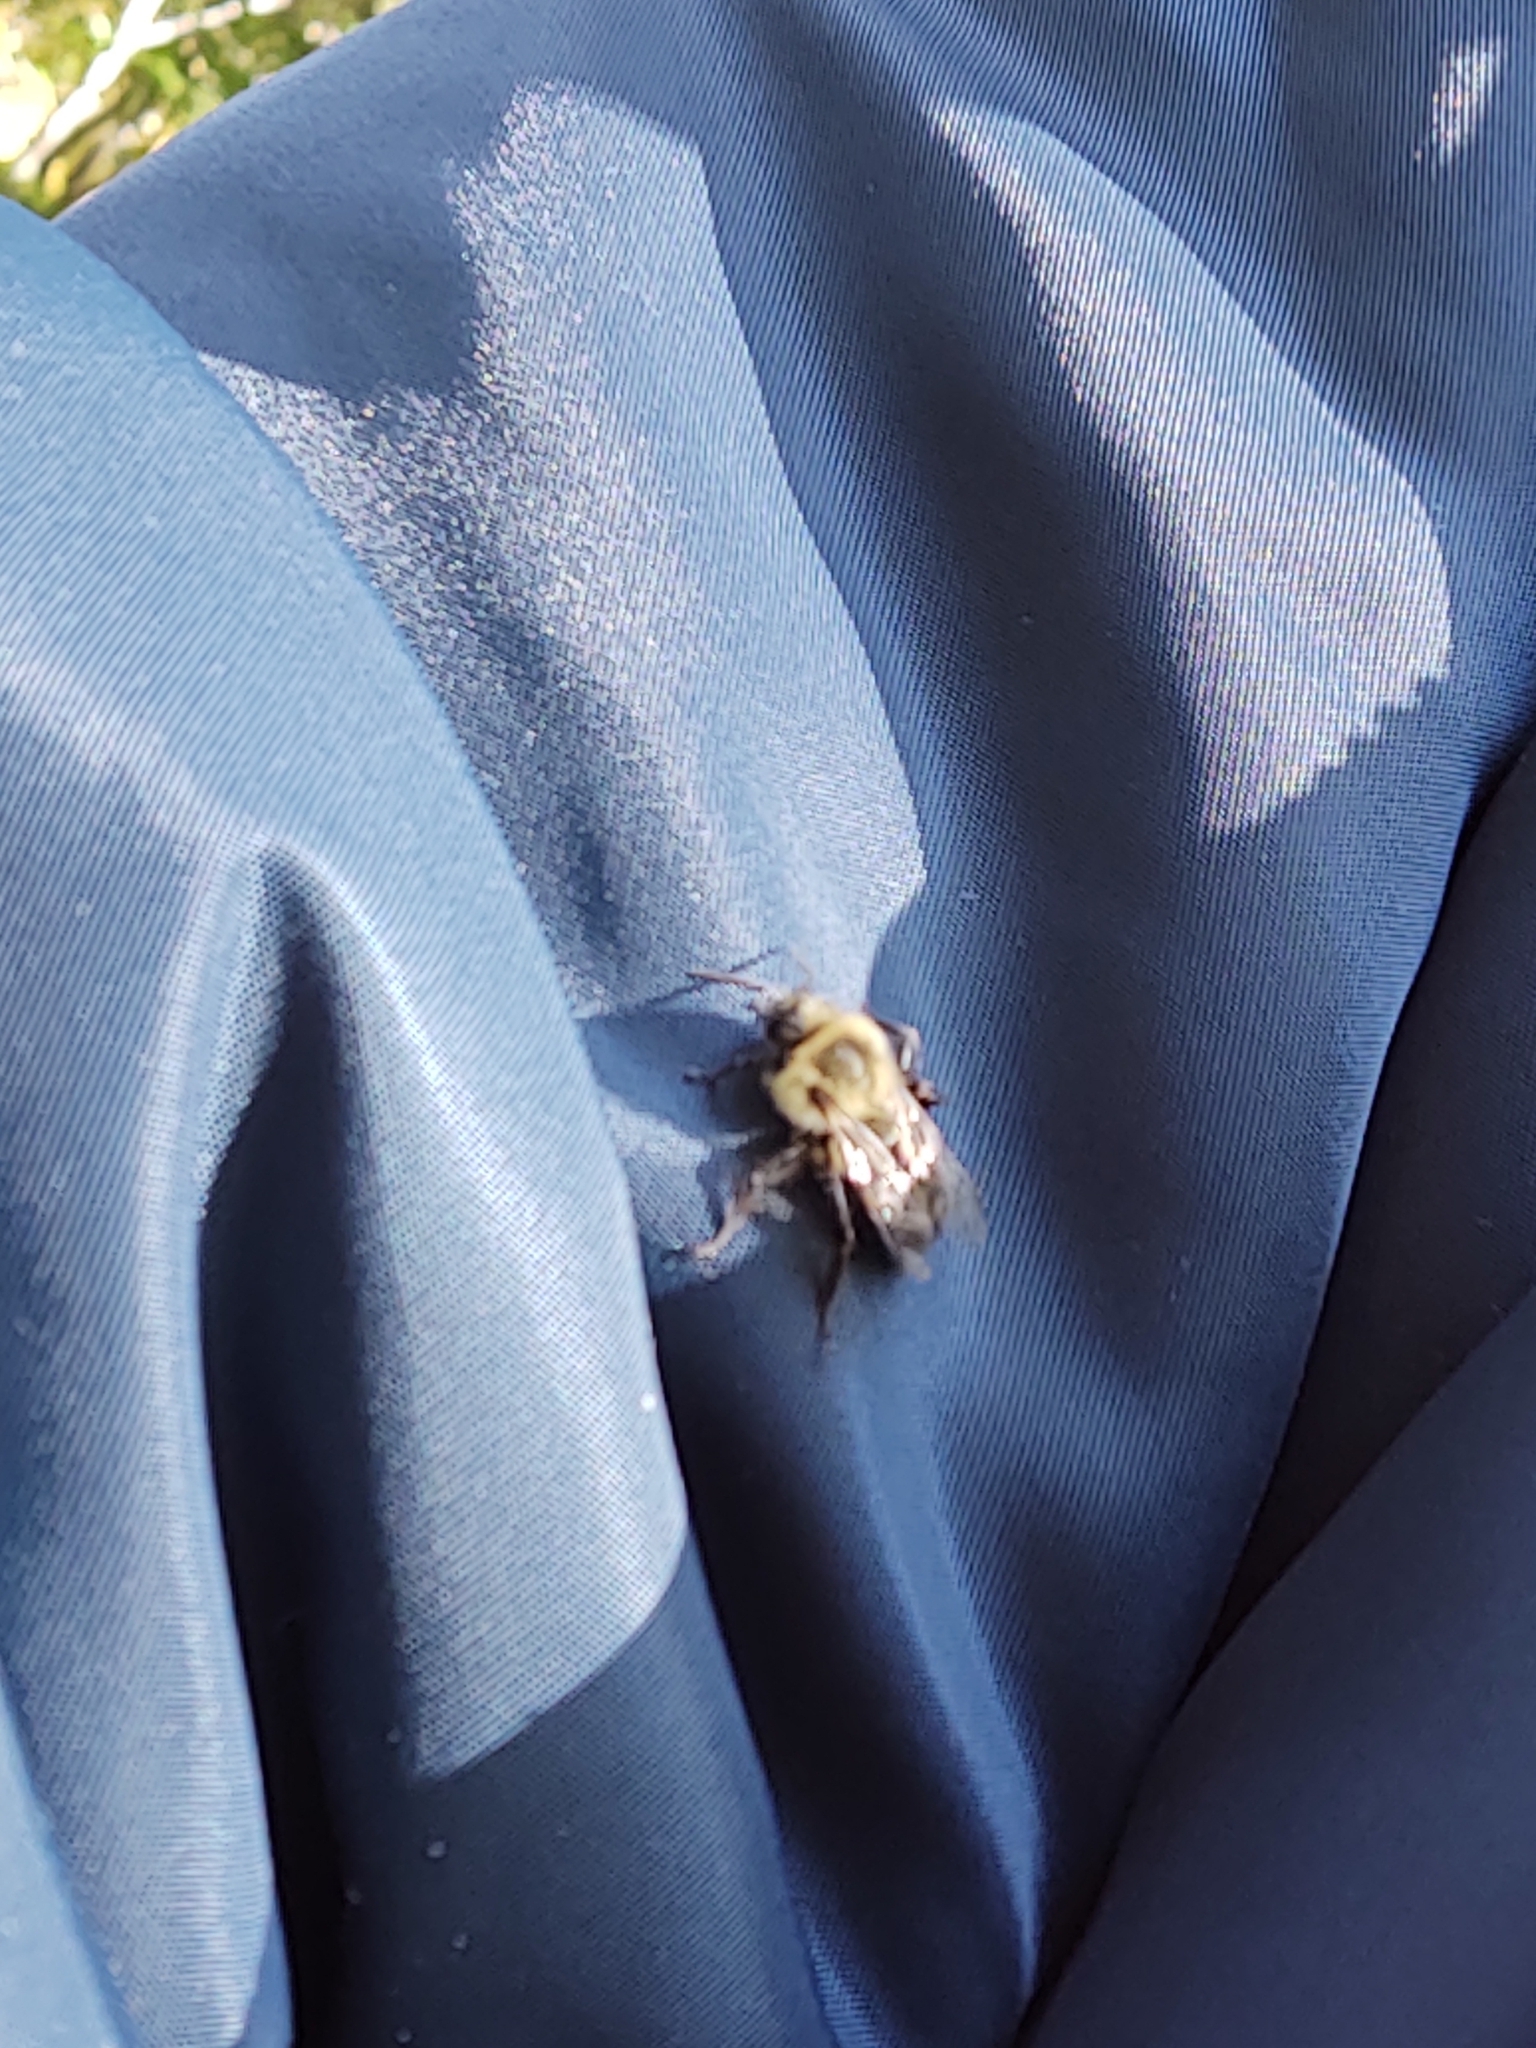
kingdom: Animalia
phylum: Arthropoda
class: Insecta
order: Hymenoptera
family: Apidae
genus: Bombus
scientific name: Bombus impatiens
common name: Common eastern bumble bee
